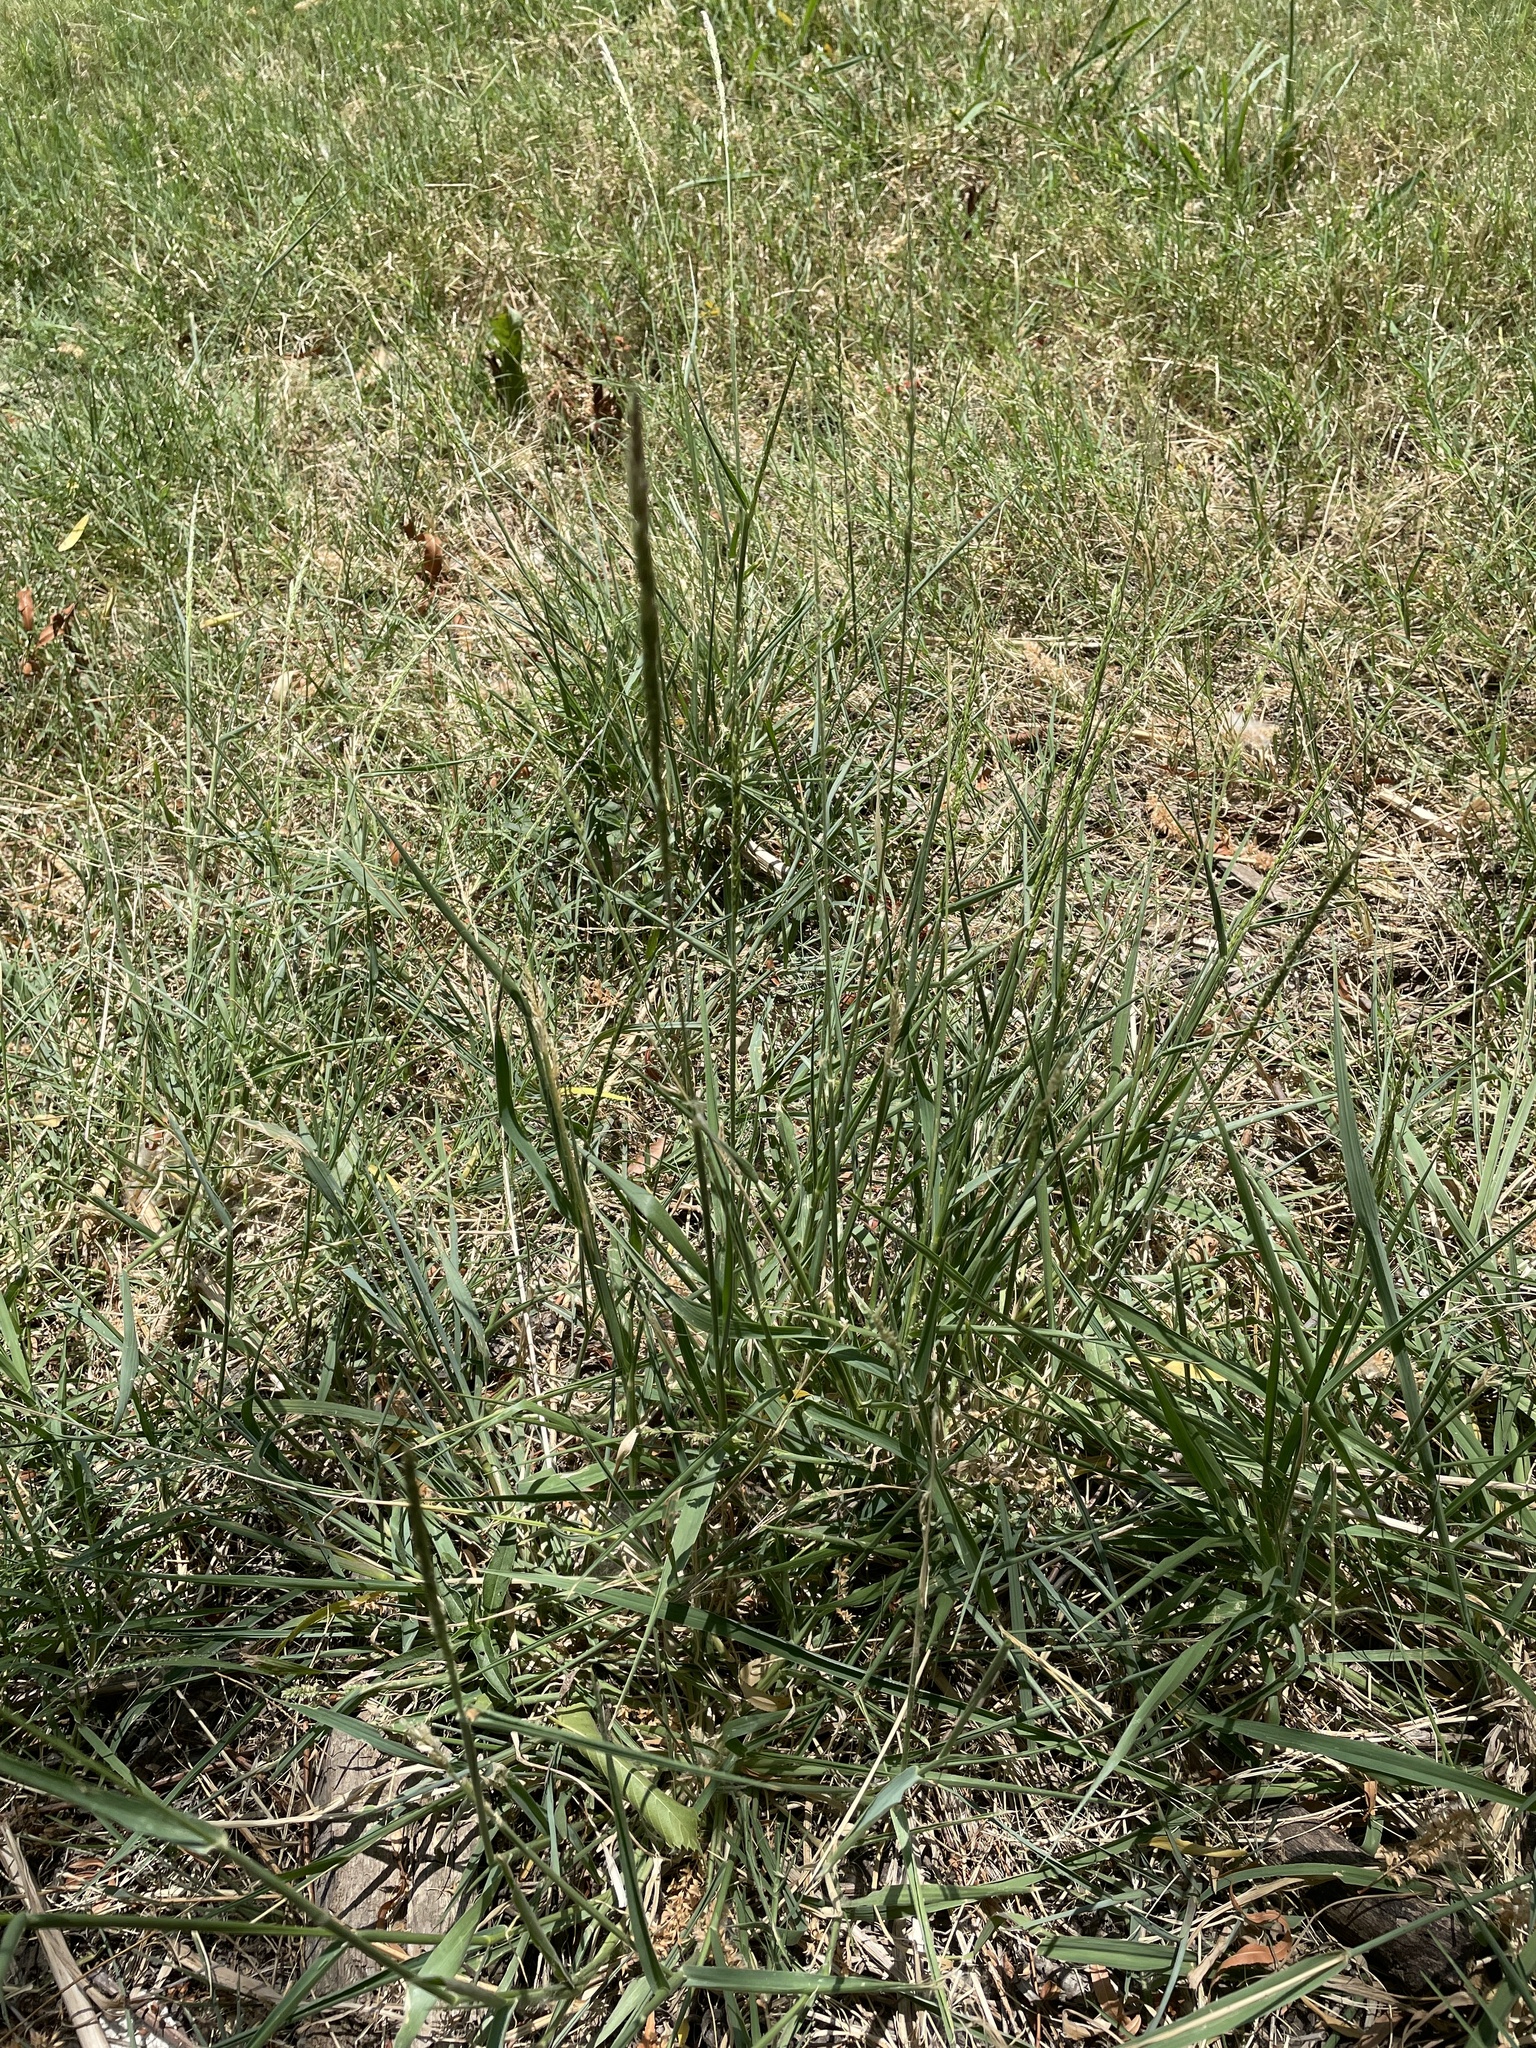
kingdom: Plantae
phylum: Tracheophyta
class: Liliopsida
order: Poales
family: Poaceae
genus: Eriochloa
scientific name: Eriochloa contracta
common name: Prairie cup grass
